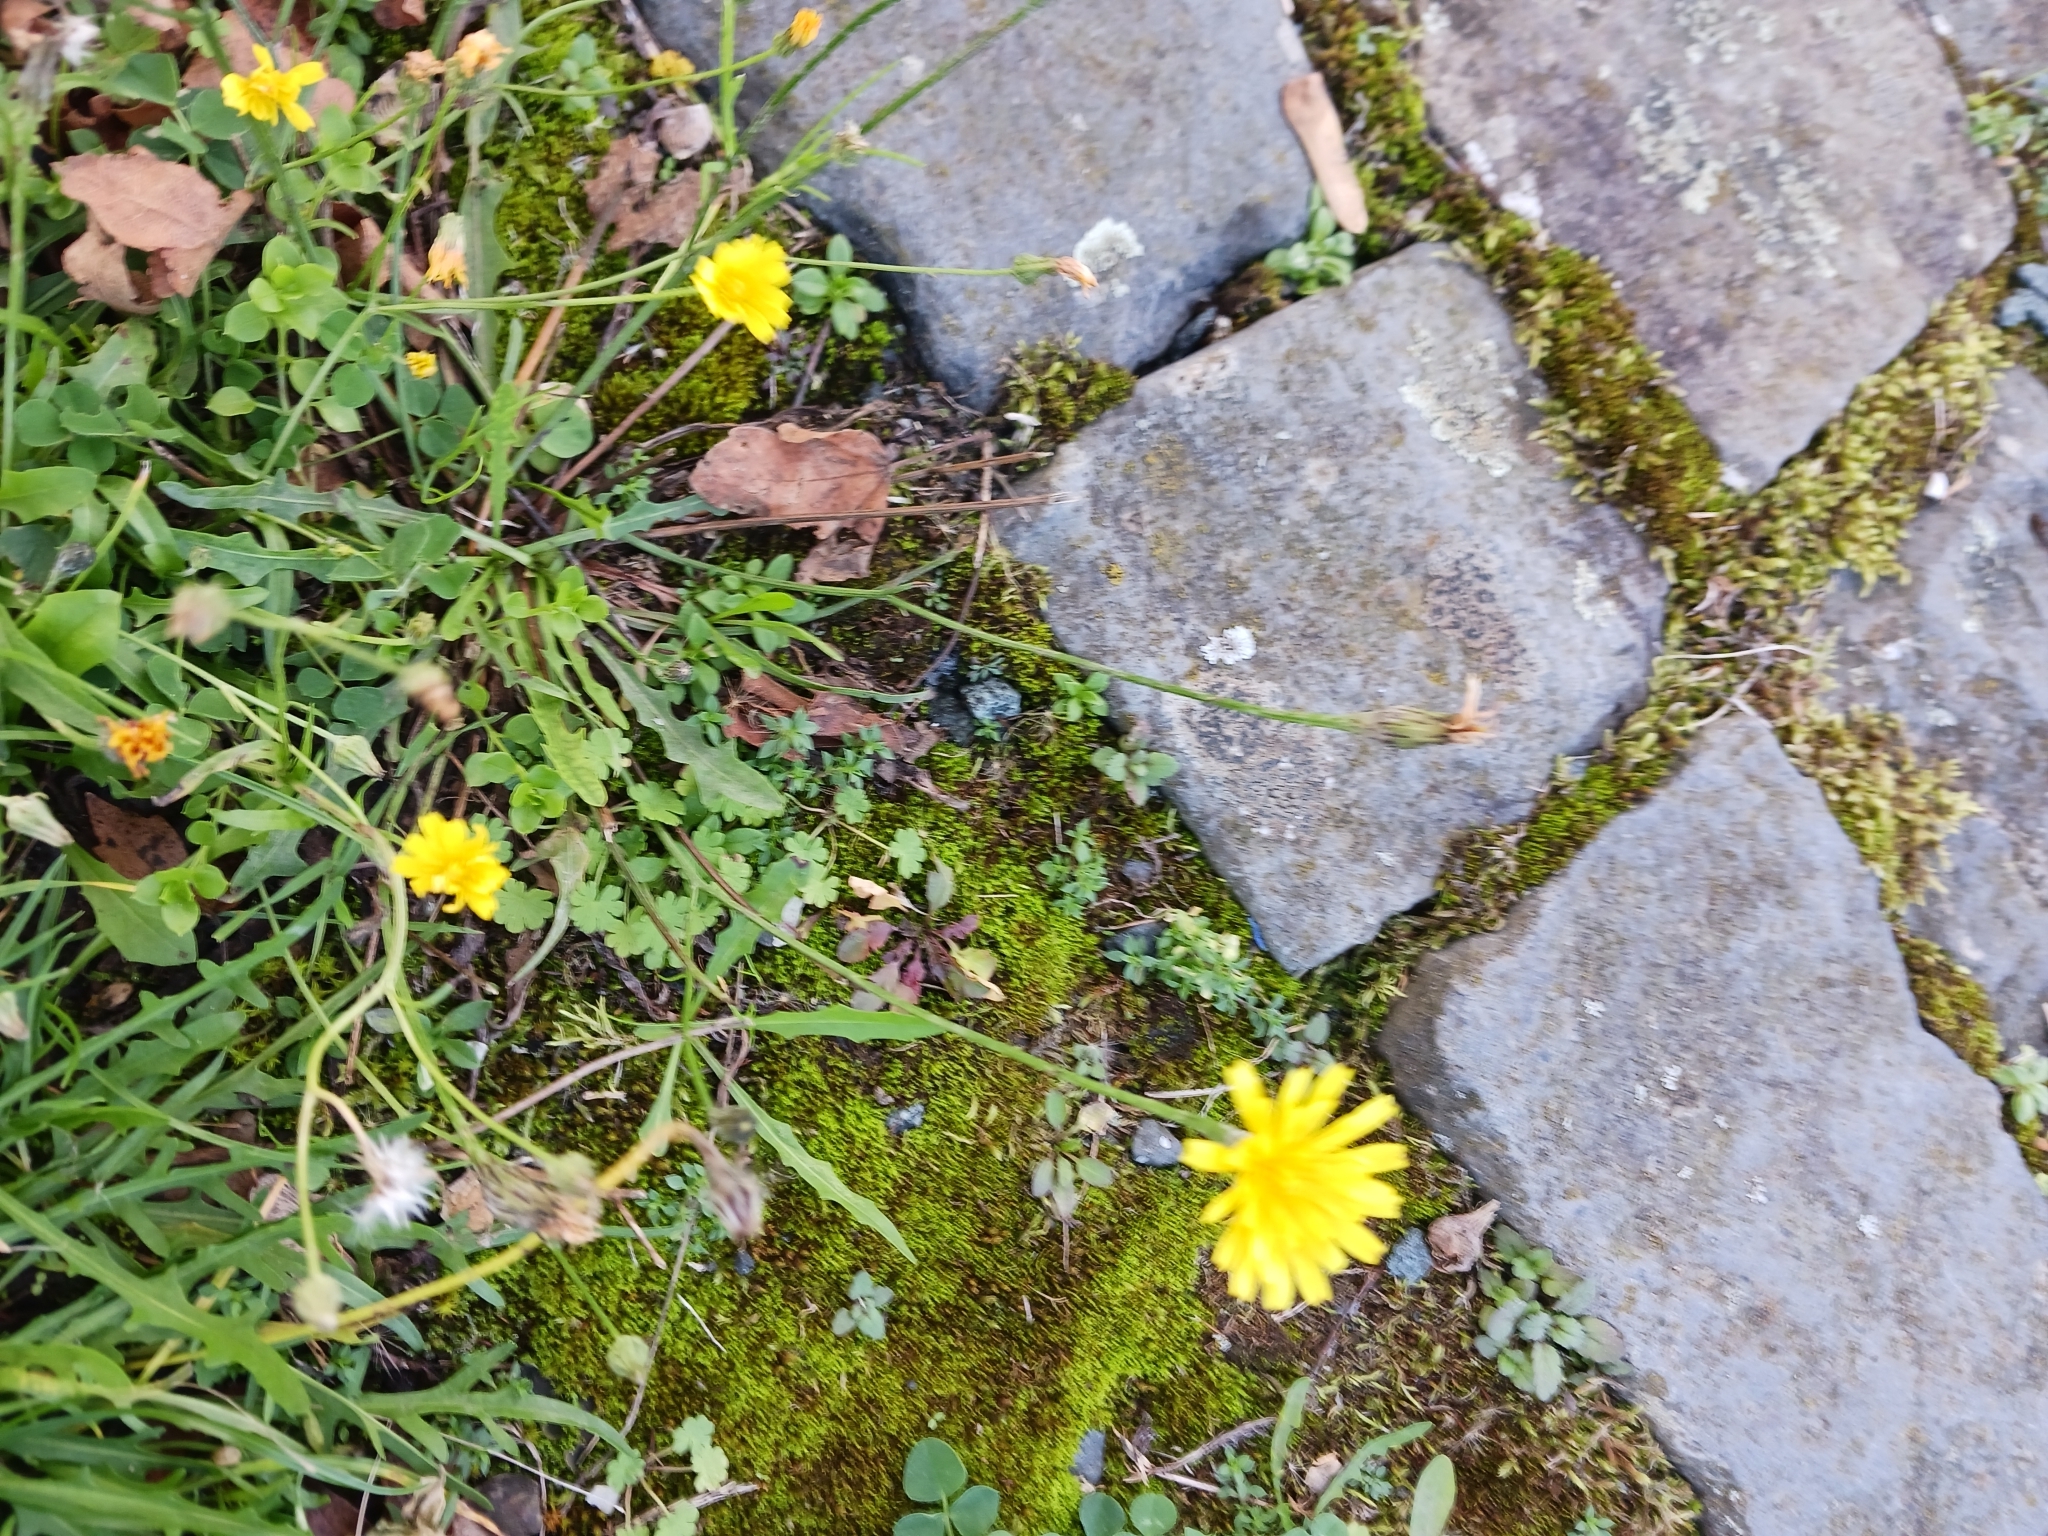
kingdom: Plantae
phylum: Tracheophyta
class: Magnoliopsida
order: Asterales
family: Asteraceae
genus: Scorzoneroides
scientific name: Scorzoneroides autumnalis
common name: Autumn hawkbit
